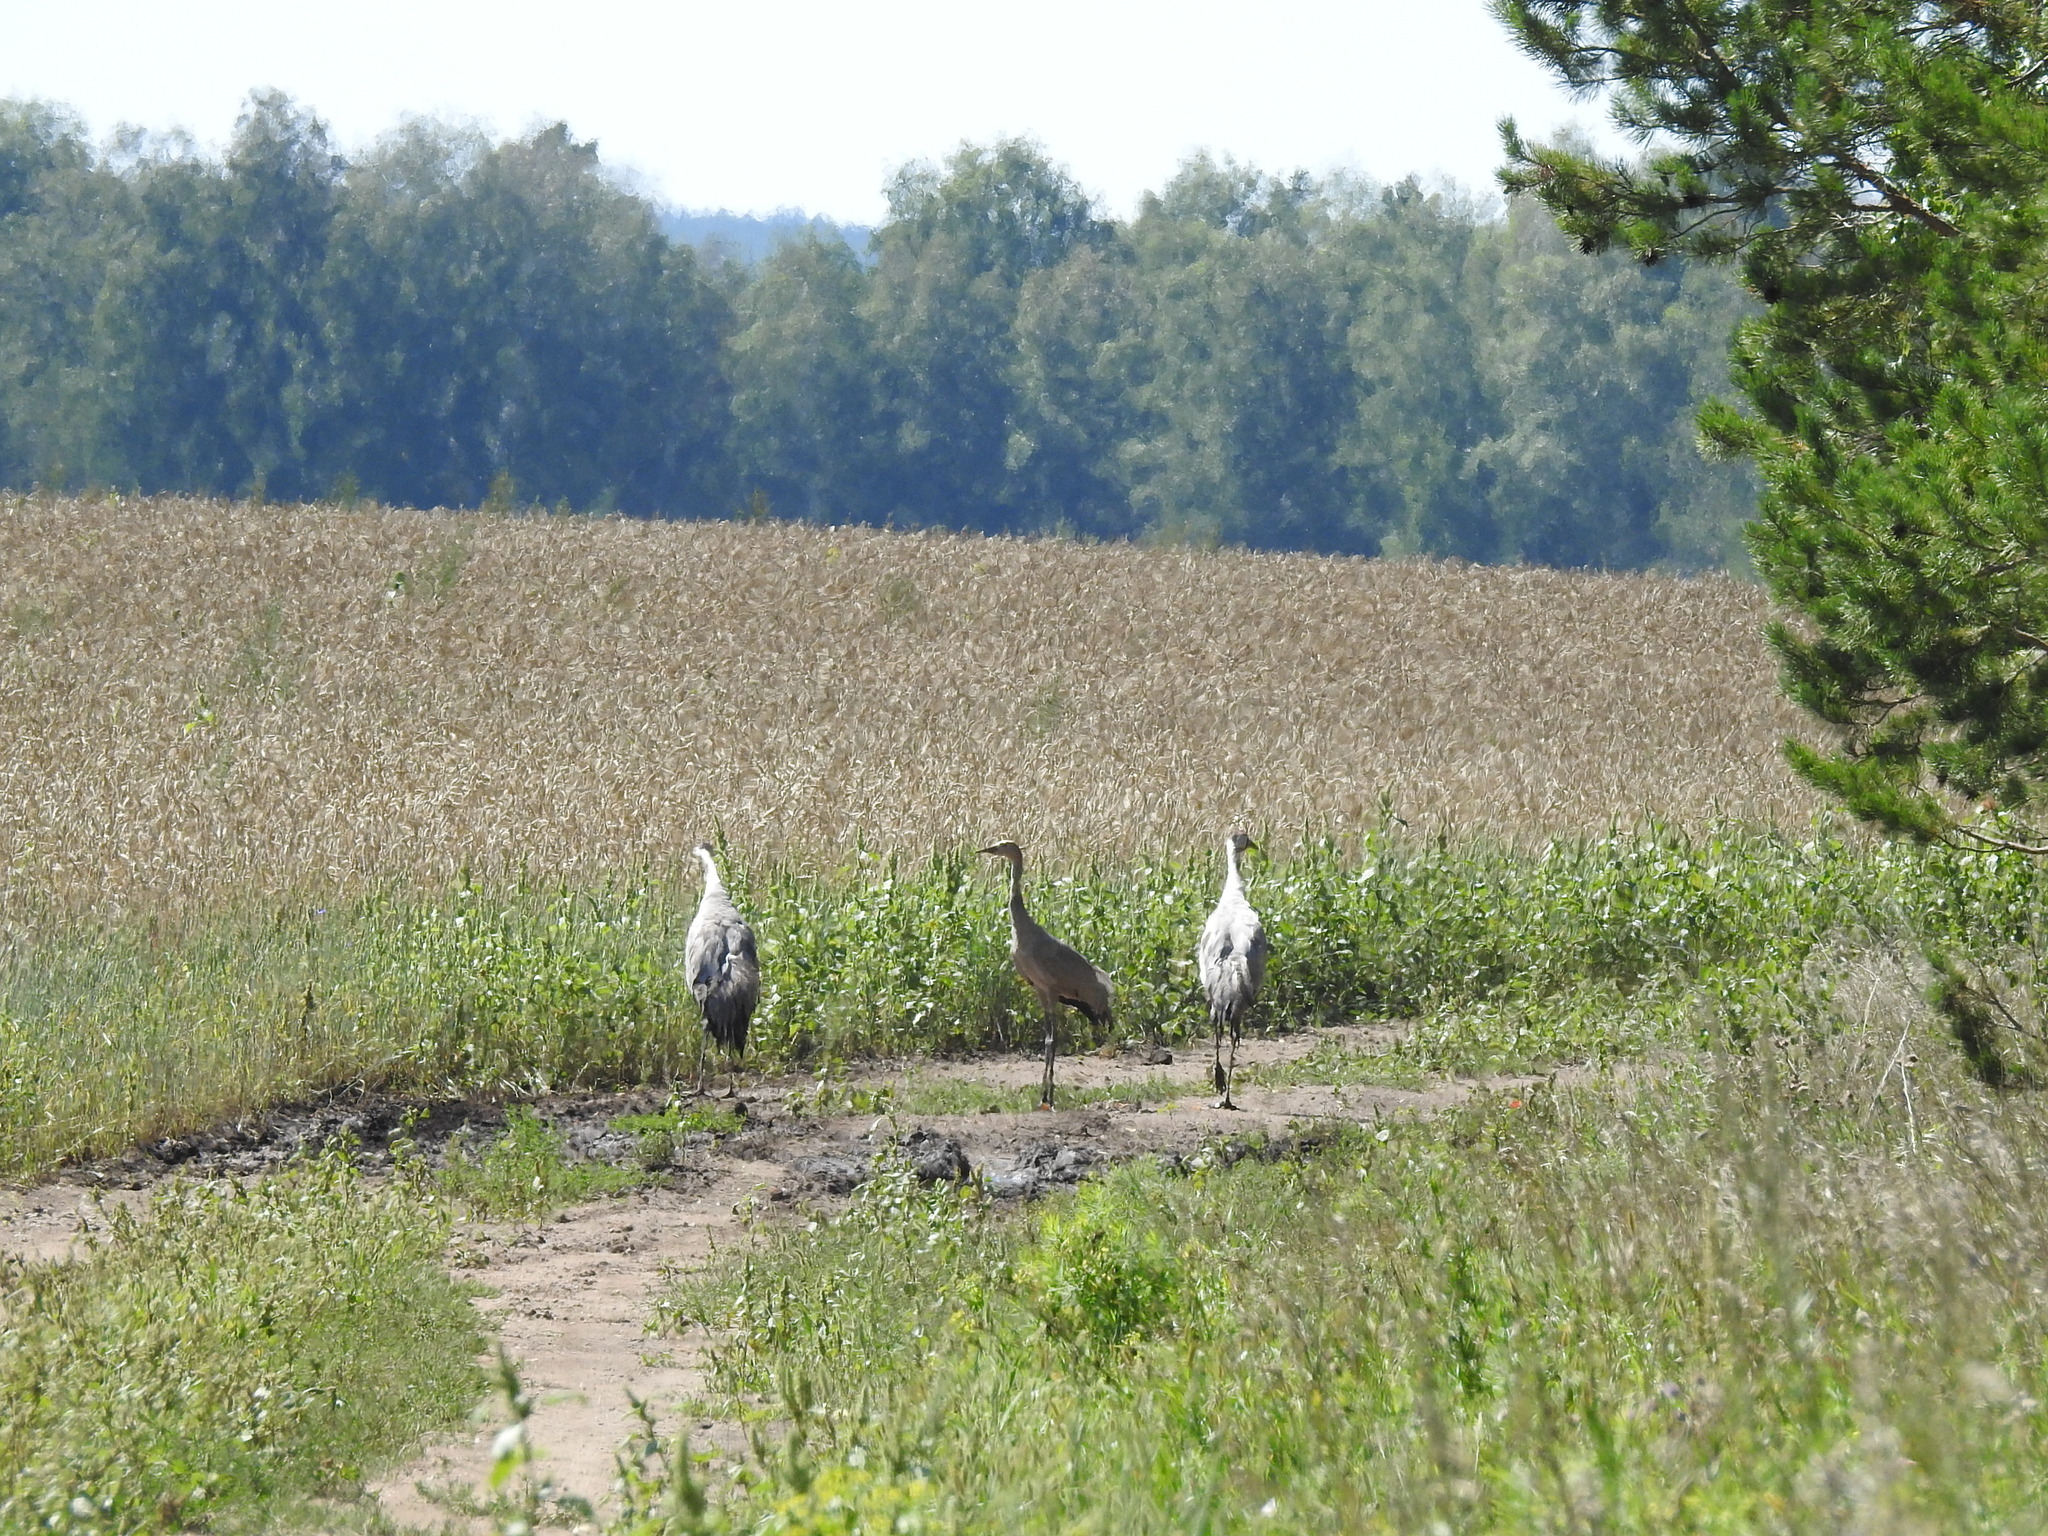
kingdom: Animalia
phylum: Chordata
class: Aves
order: Gruiformes
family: Gruidae
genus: Grus
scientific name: Grus grus
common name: Common crane
